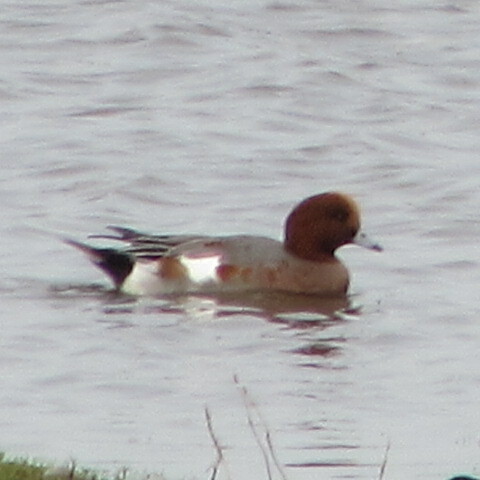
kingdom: Animalia
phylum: Chordata
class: Aves
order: Anseriformes
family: Anatidae
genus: Mareca
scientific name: Mareca penelope
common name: Eurasian wigeon
